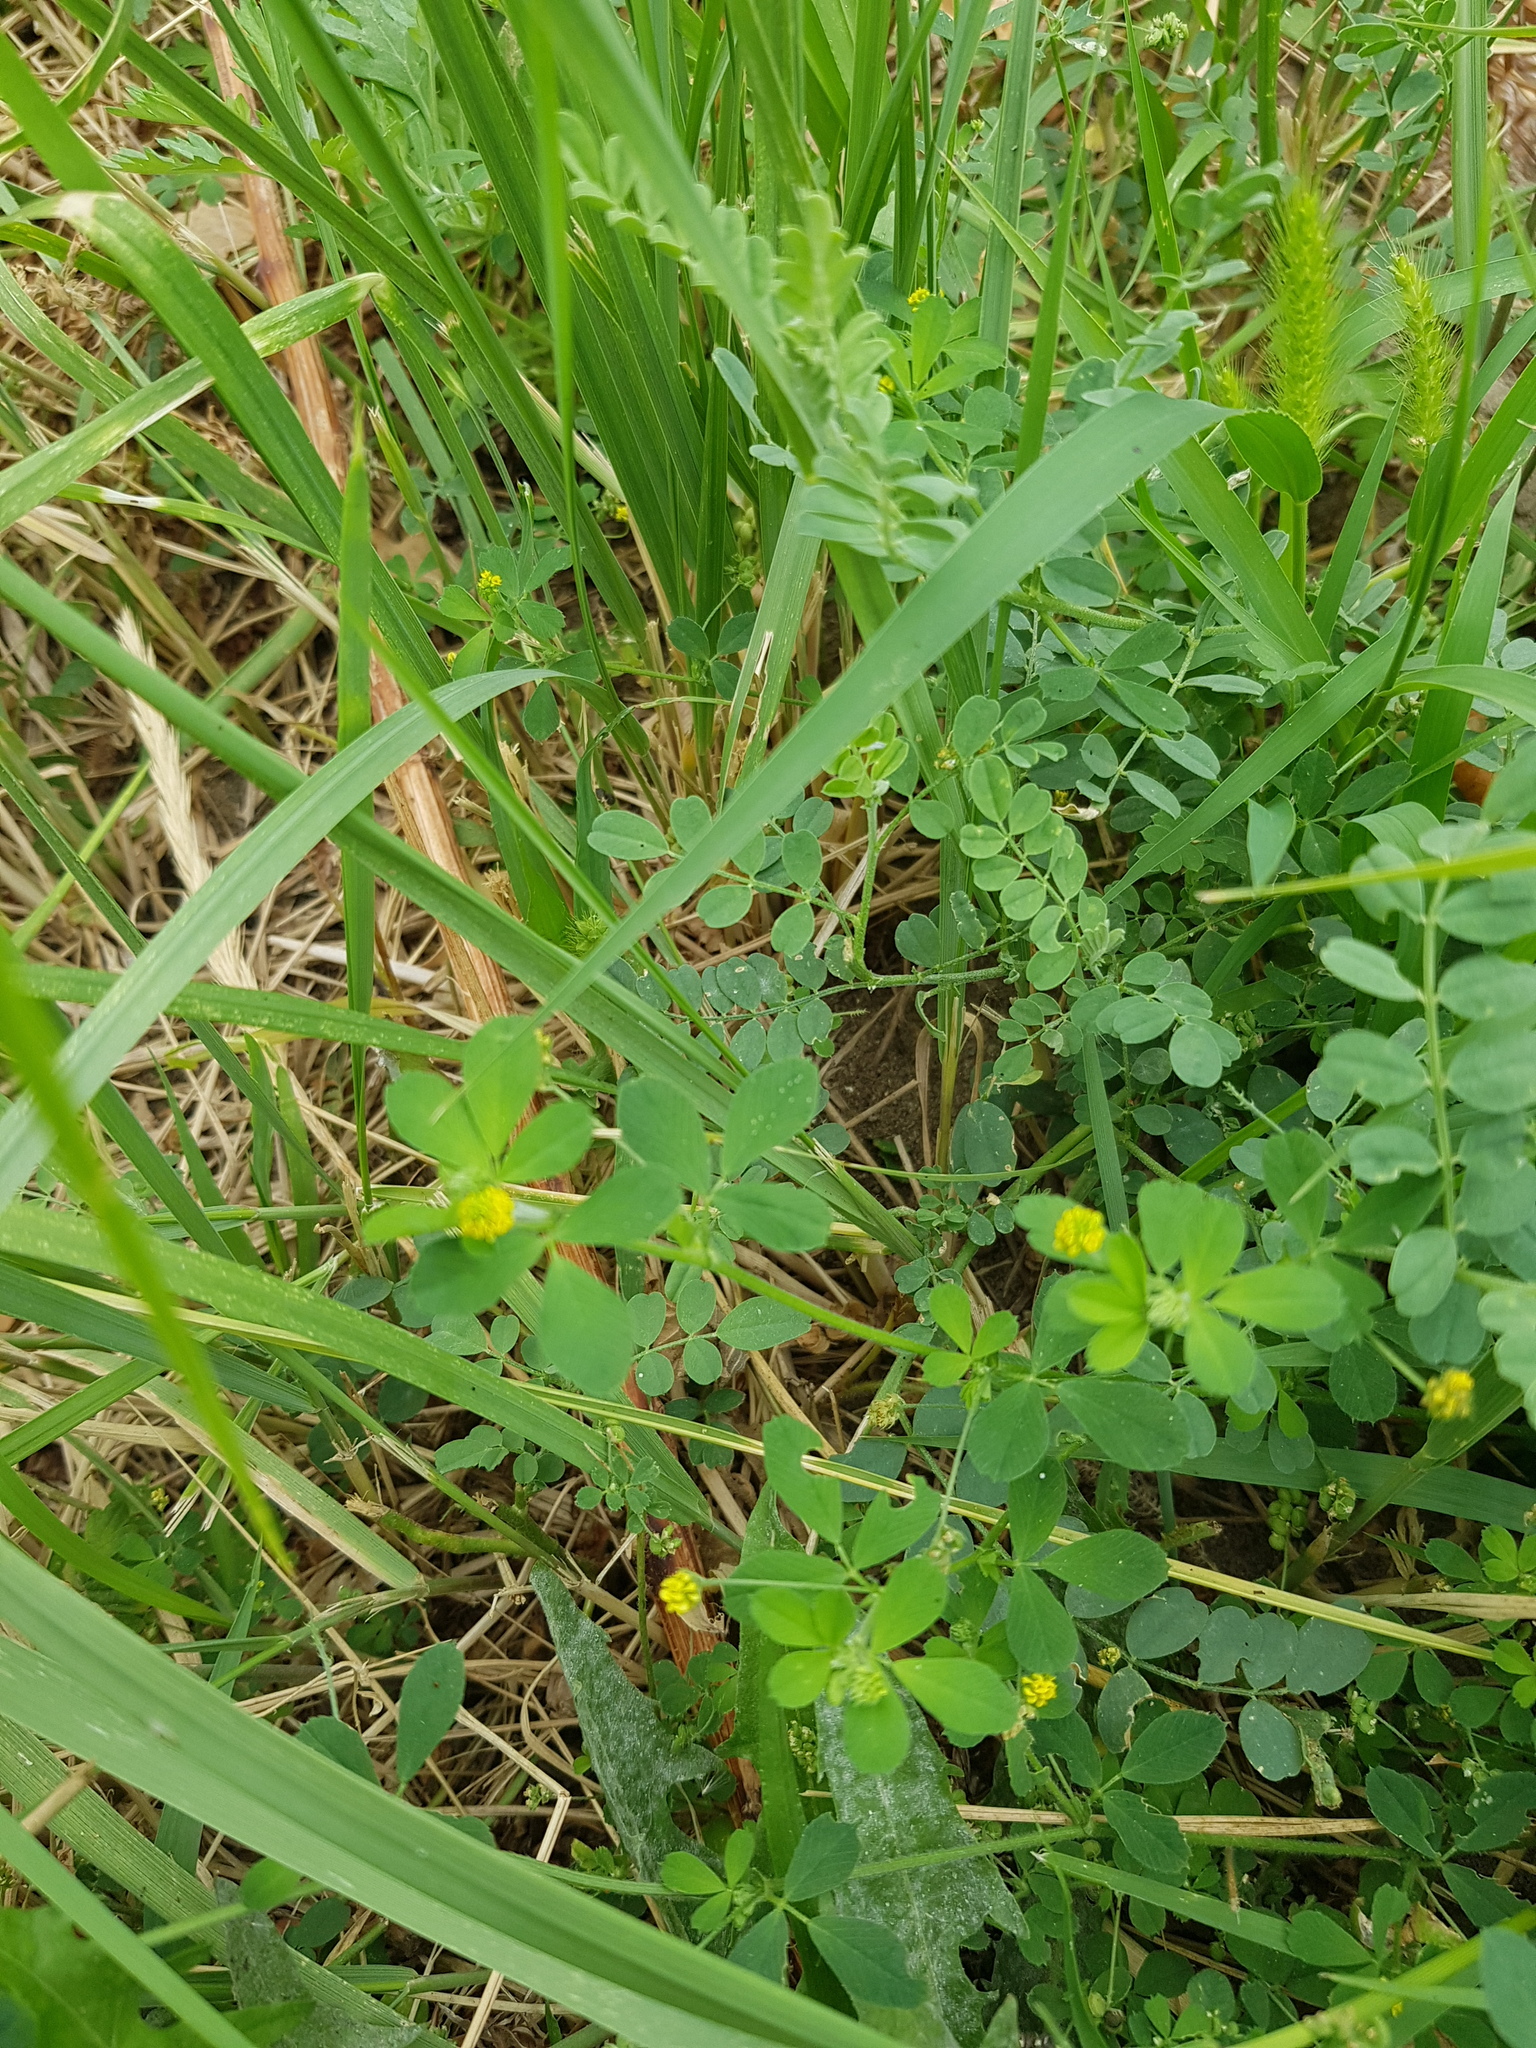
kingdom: Plantae
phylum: Tracheophyta
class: Magnoliopsida
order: Fabales
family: Fabaceae
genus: Medicago
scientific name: Medicago lupulina
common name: Black medick
